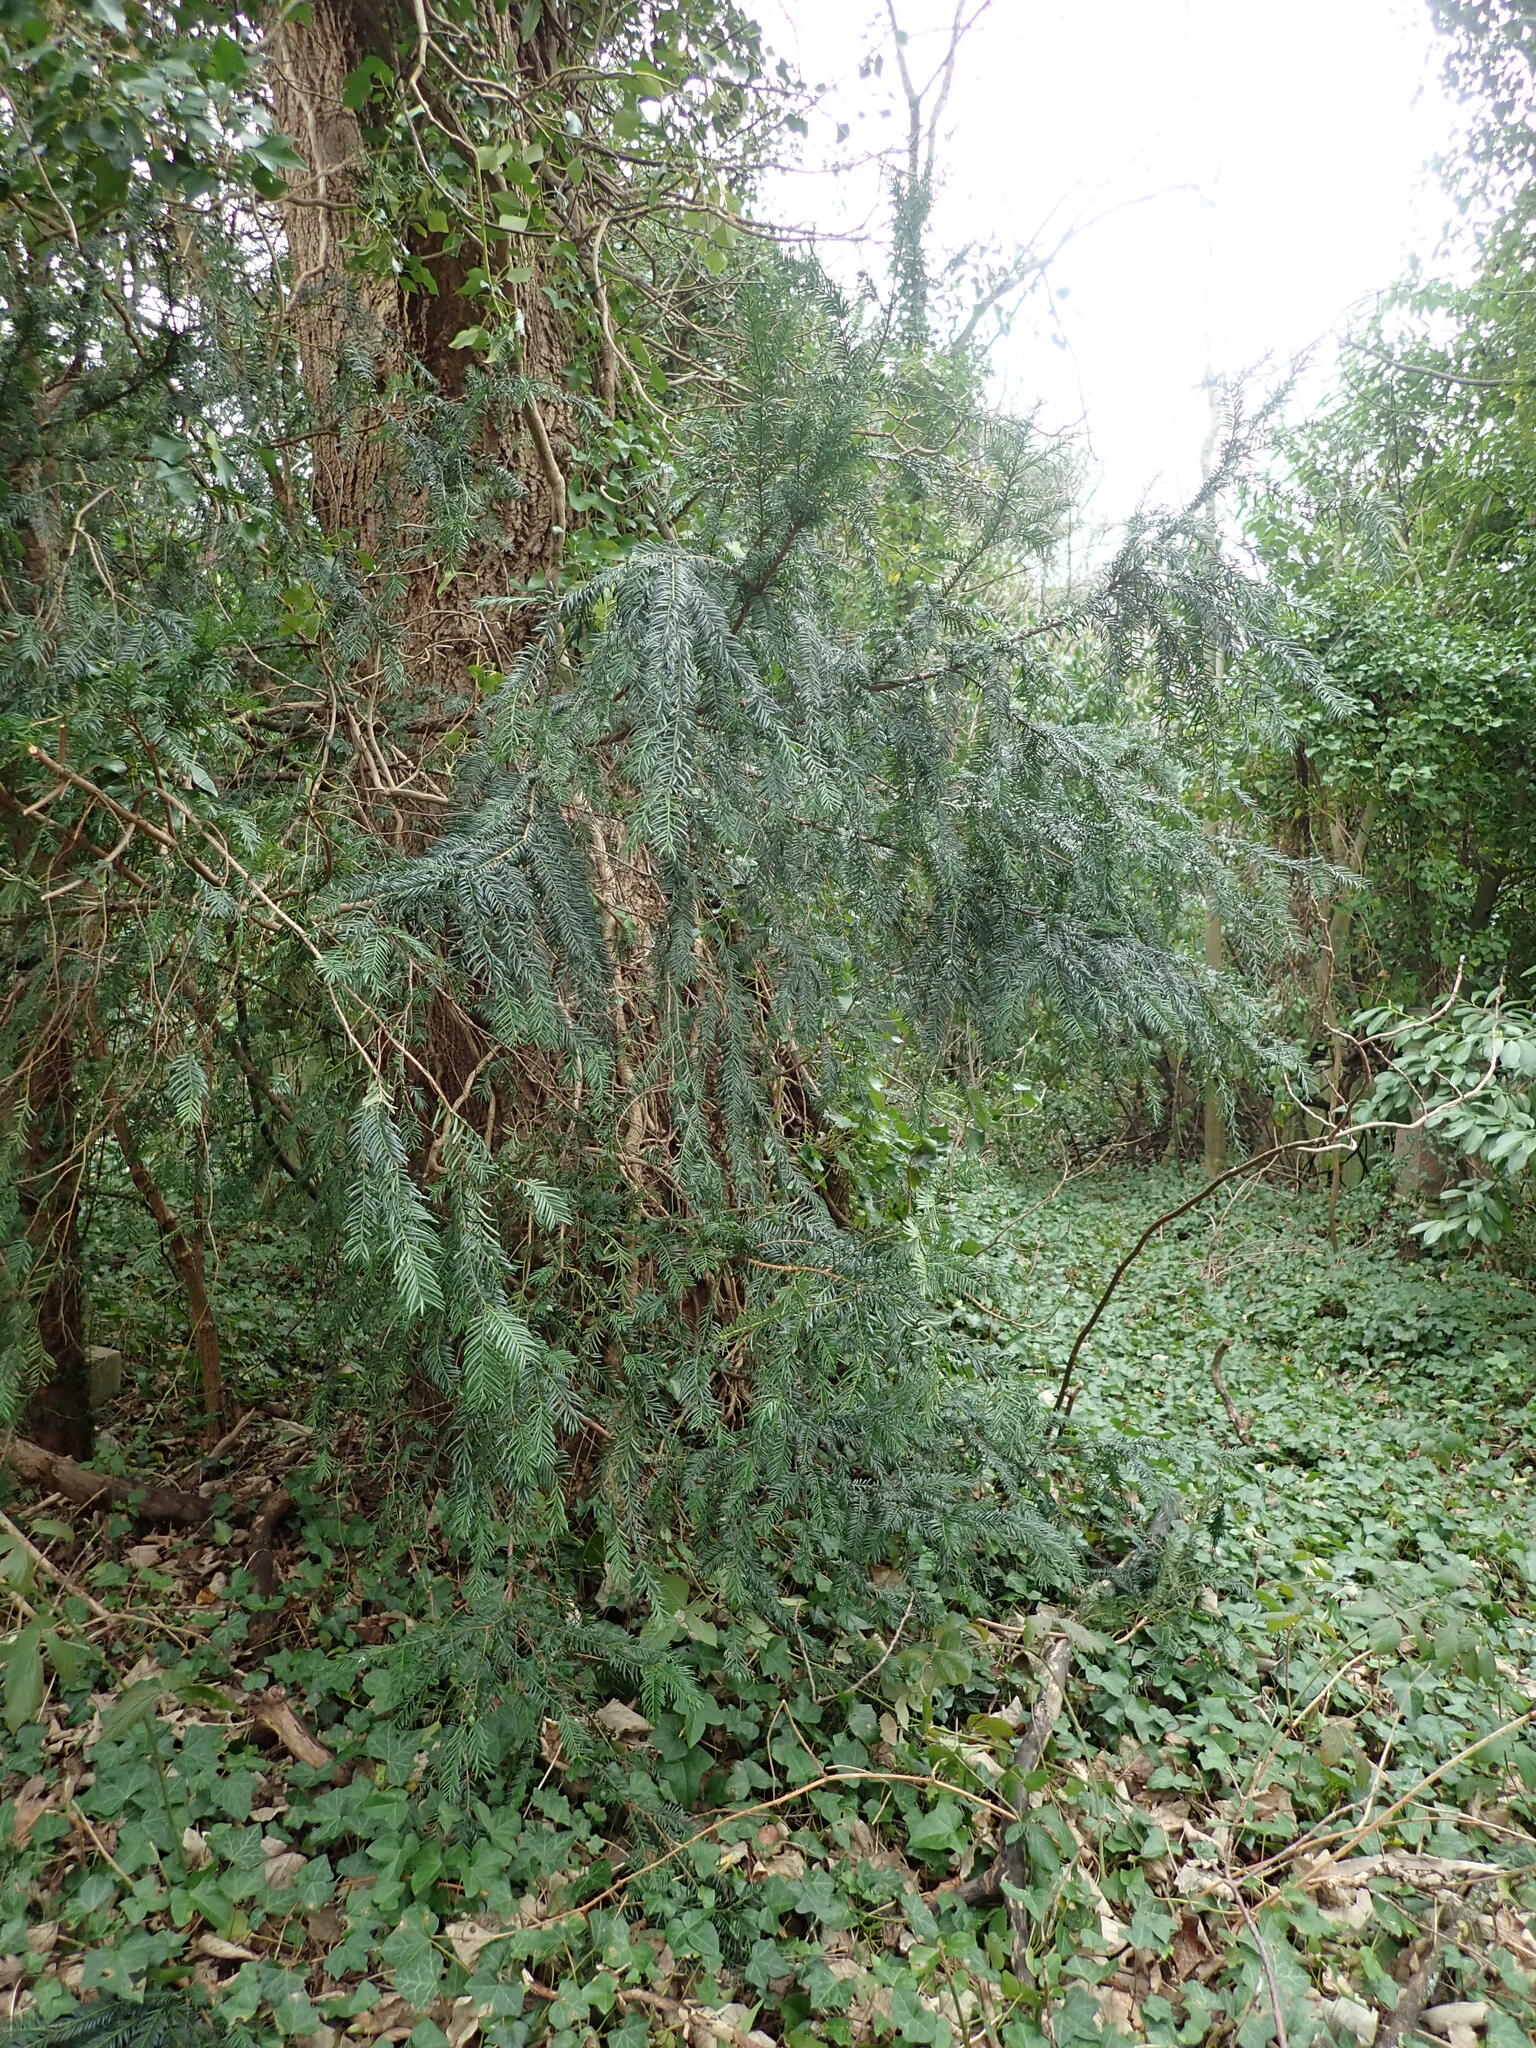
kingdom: Plantae
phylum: Tracheophyta
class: Pinopsida
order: Pinales
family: Taxaceae
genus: Taxus
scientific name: Taxus baccata
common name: Yew
